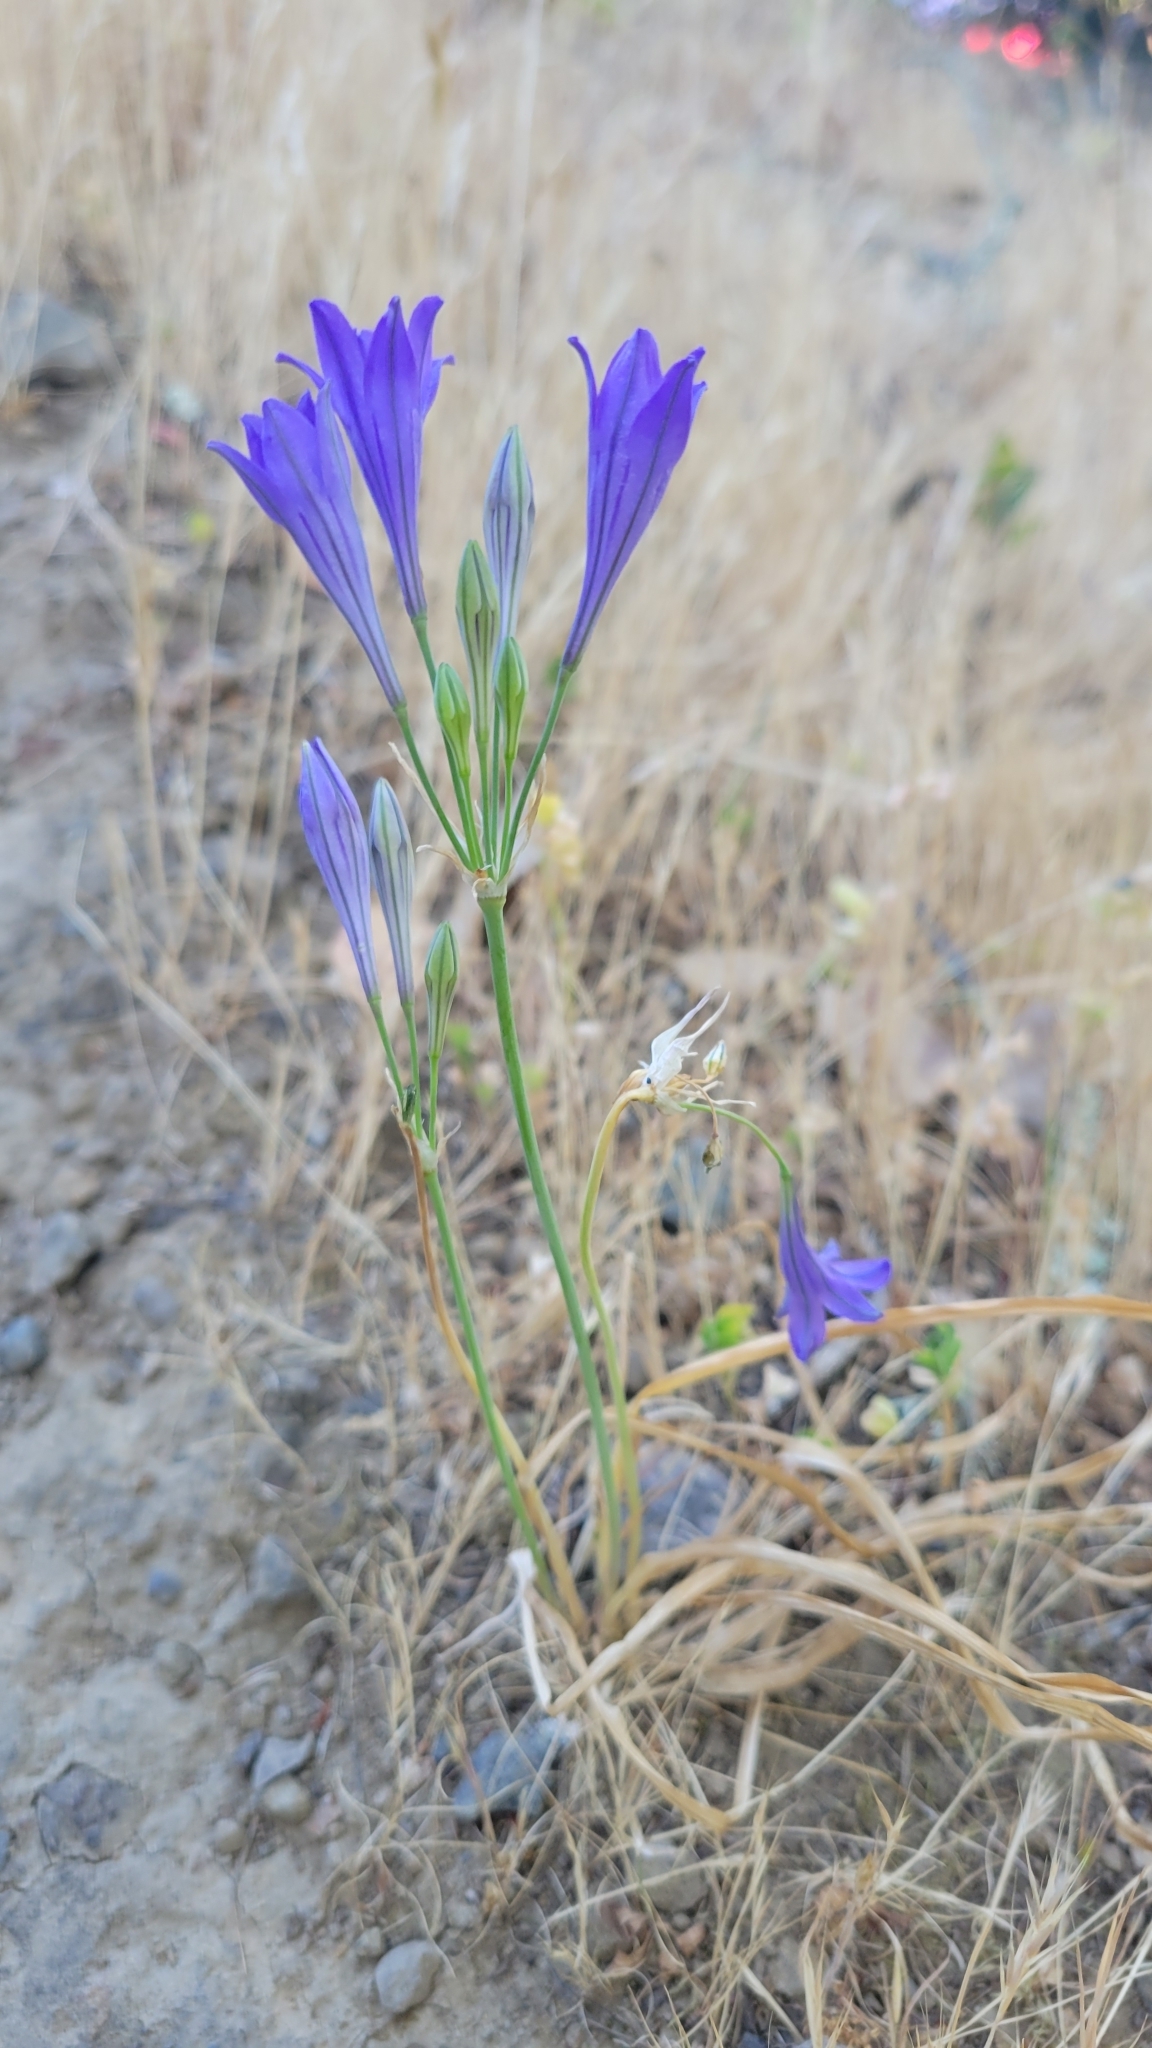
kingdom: Plantae
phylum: Tracheophyta
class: Liliopsida
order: Asparagales
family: Asparagaceae
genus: Triteleia
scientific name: Triteleia laxa
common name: Triplet-lily
